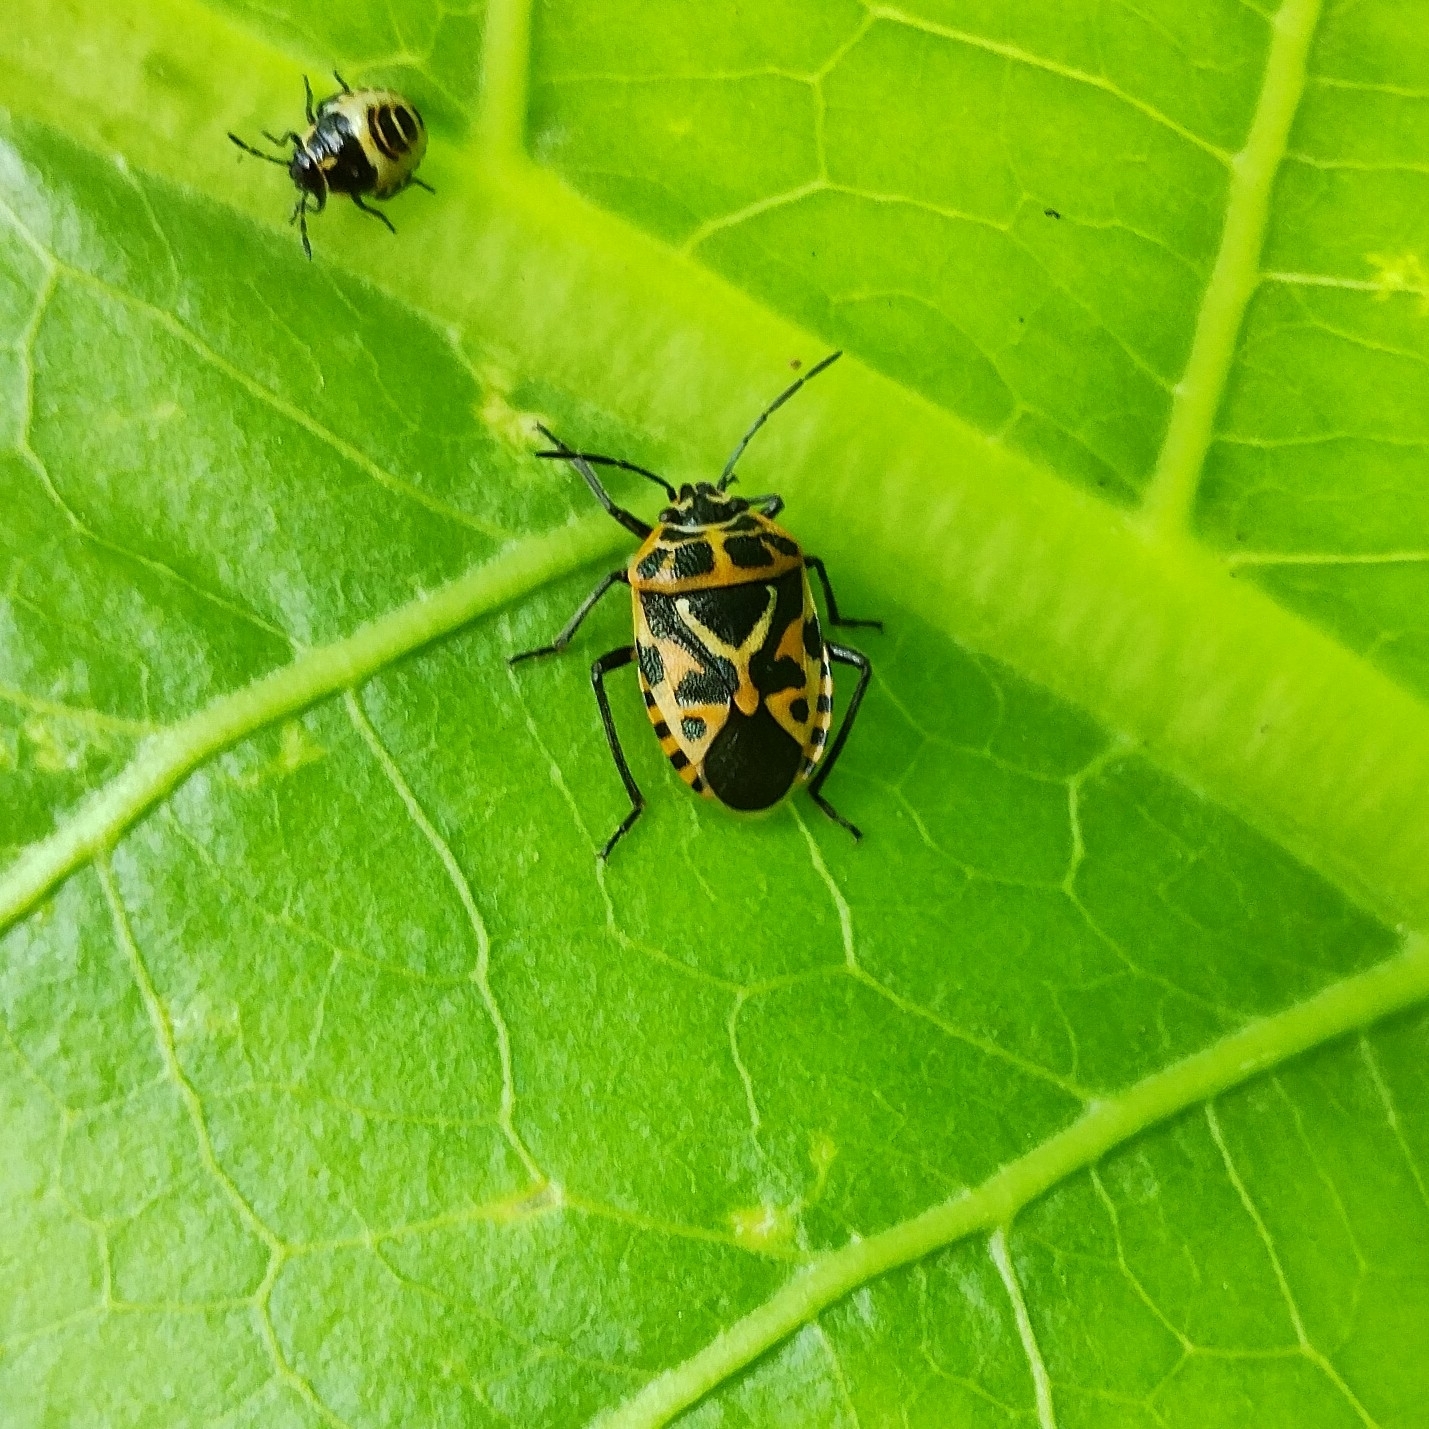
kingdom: Animalia
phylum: Arthropoda
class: Insecta
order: Hemiptera
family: Pentatomidae
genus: Eurydema
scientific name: Eurydema ventralis
